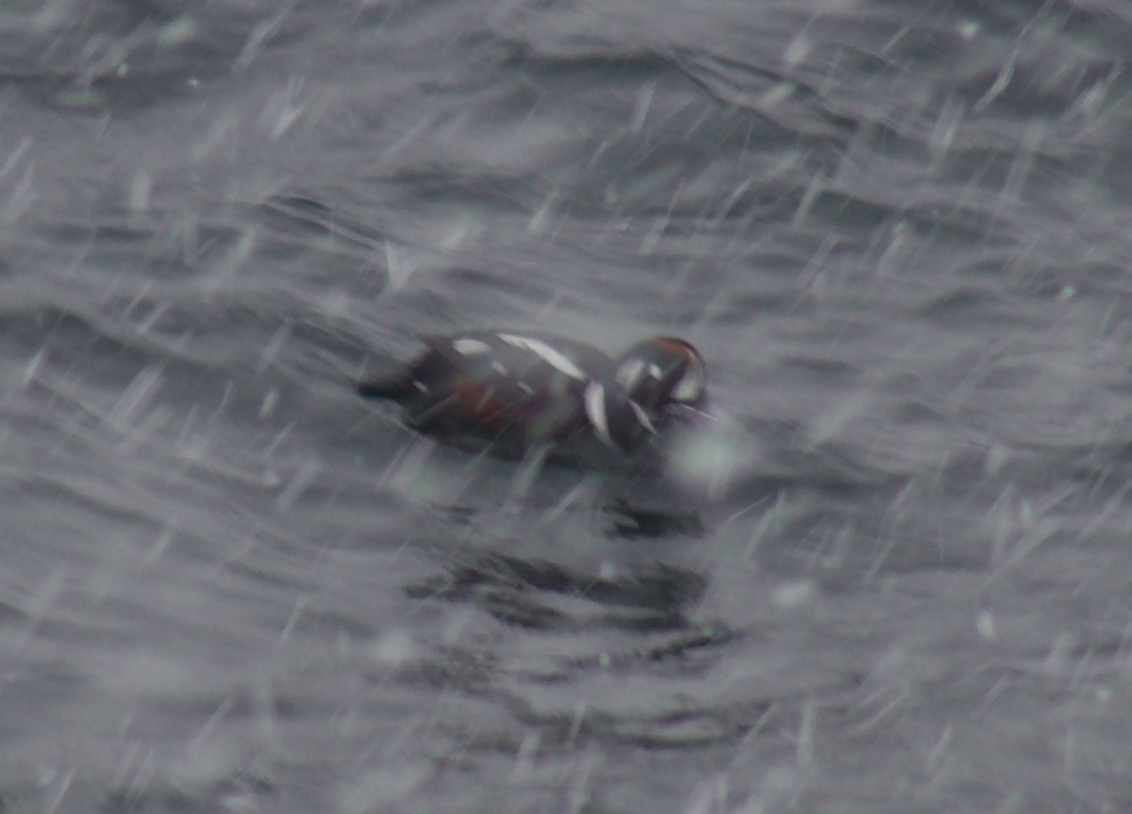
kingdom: Animalia
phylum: Chordata
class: Aves
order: Anseriformes
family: Anatidae
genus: Histrionicus
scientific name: Histrionicus histrionicus
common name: Harlequin duck
